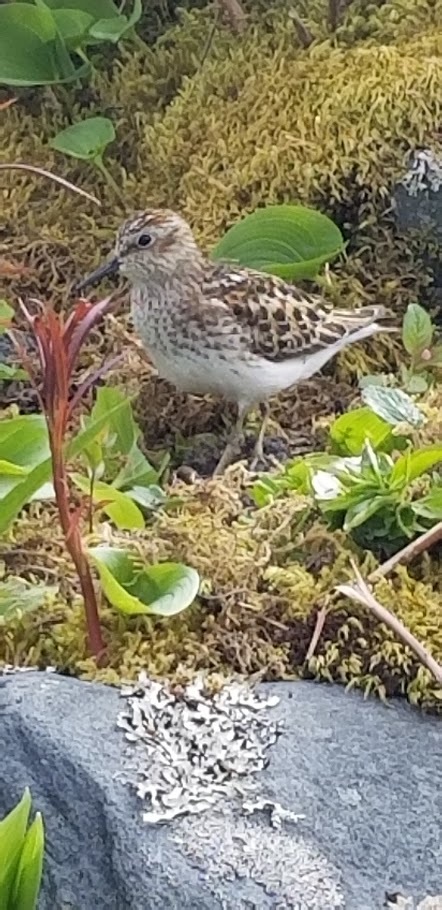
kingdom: Animalia
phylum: Chordata
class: Aves
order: Charadriiformes
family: Scolopacidae
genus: Calidris
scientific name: Calidris minutilla
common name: Least sandpiper
